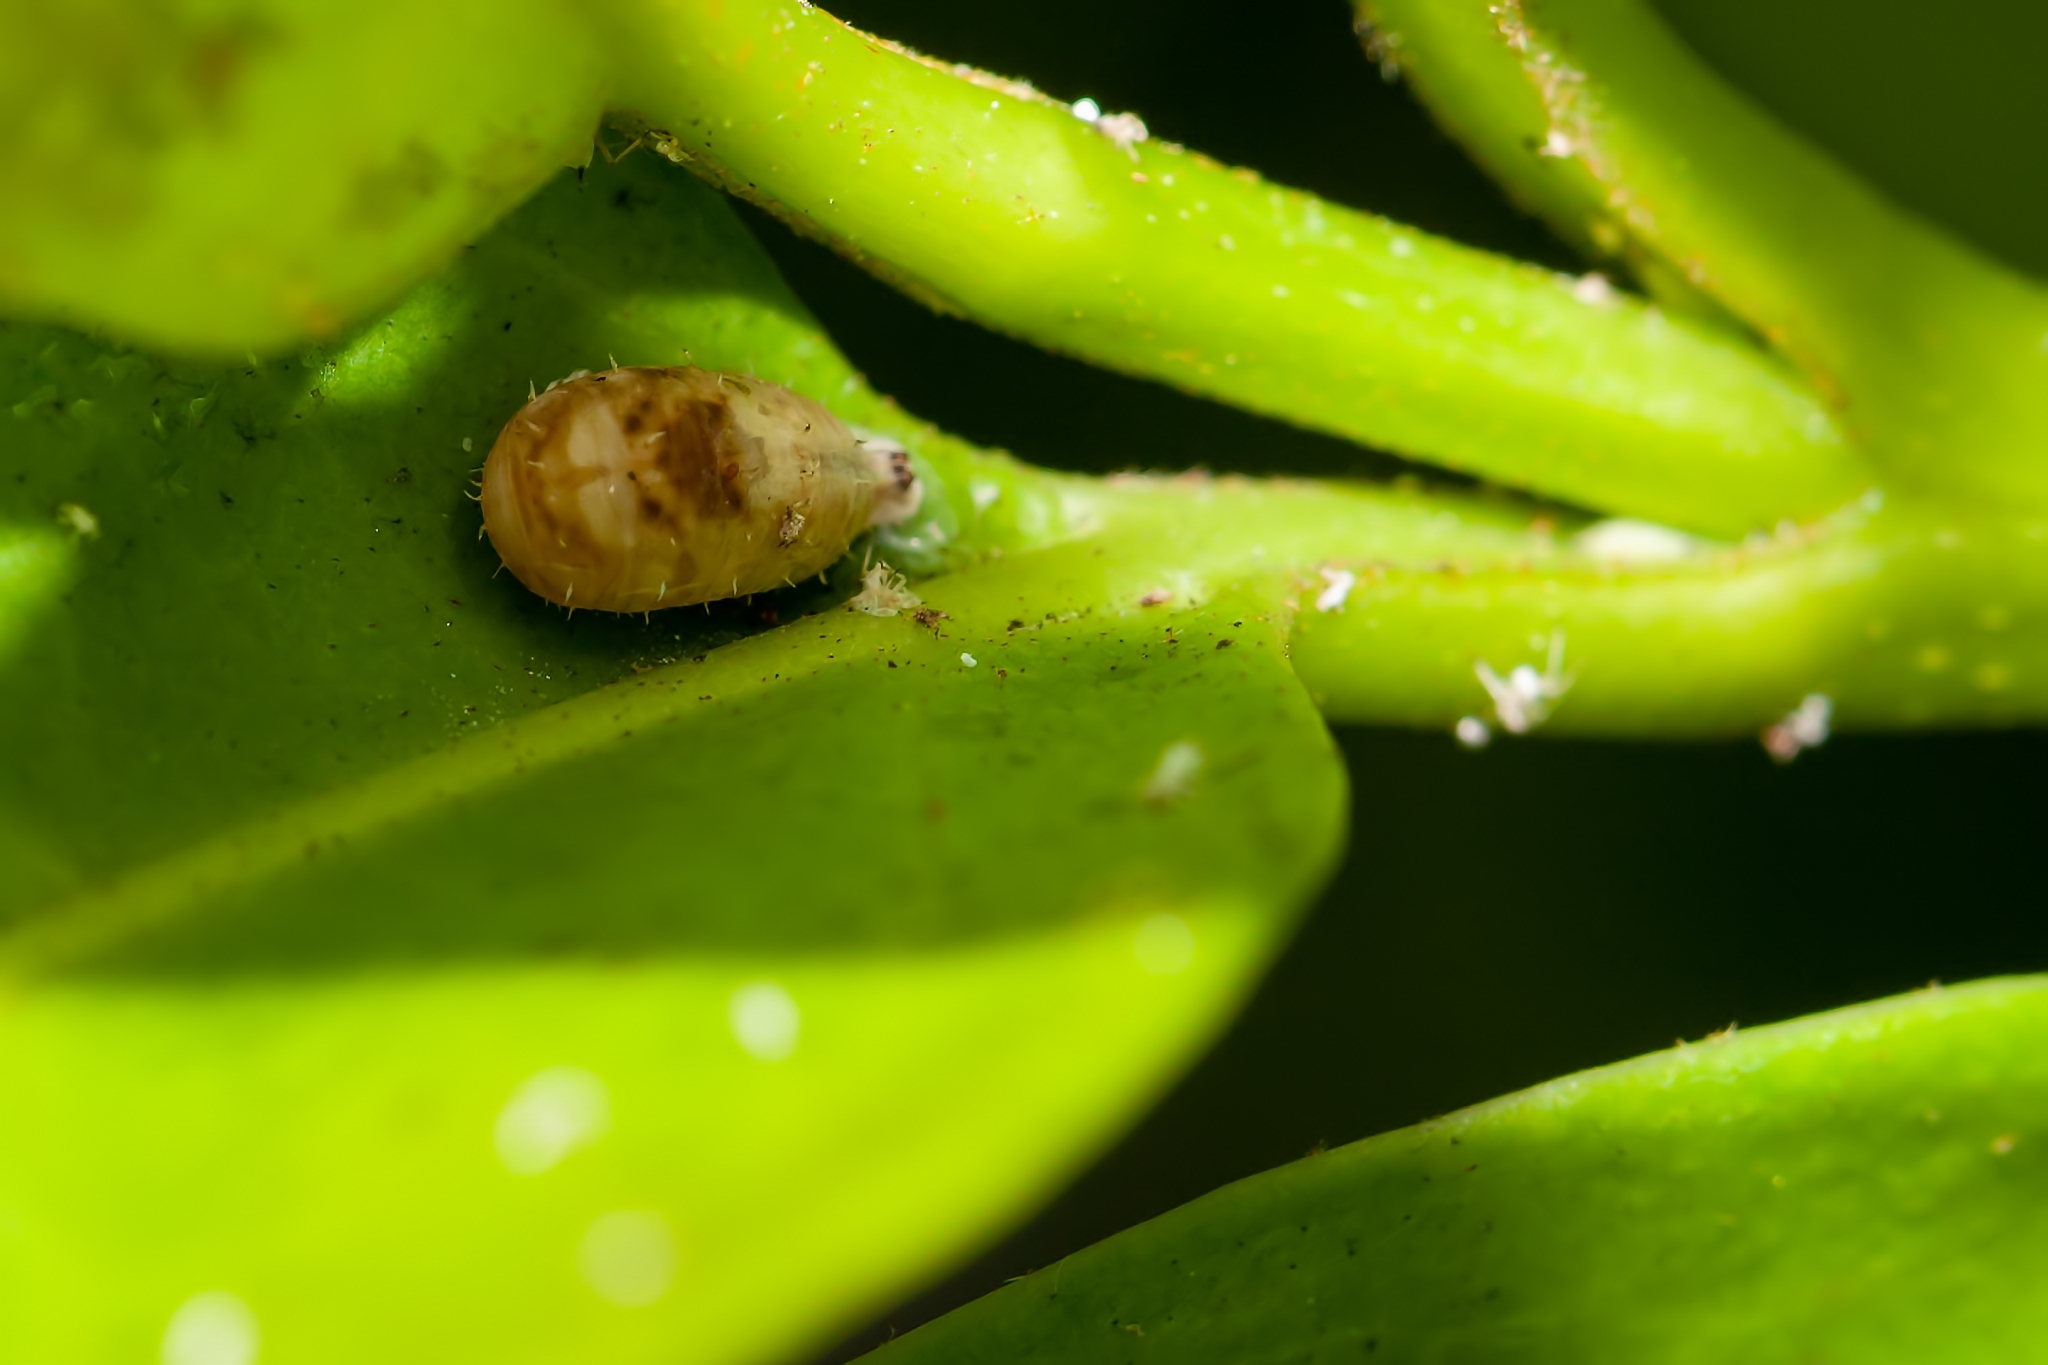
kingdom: Animalia
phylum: Arthropoda
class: Insecta
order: Diptera
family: Syrphidae
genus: Dioprosopa
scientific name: Dioprosopa clavatus
